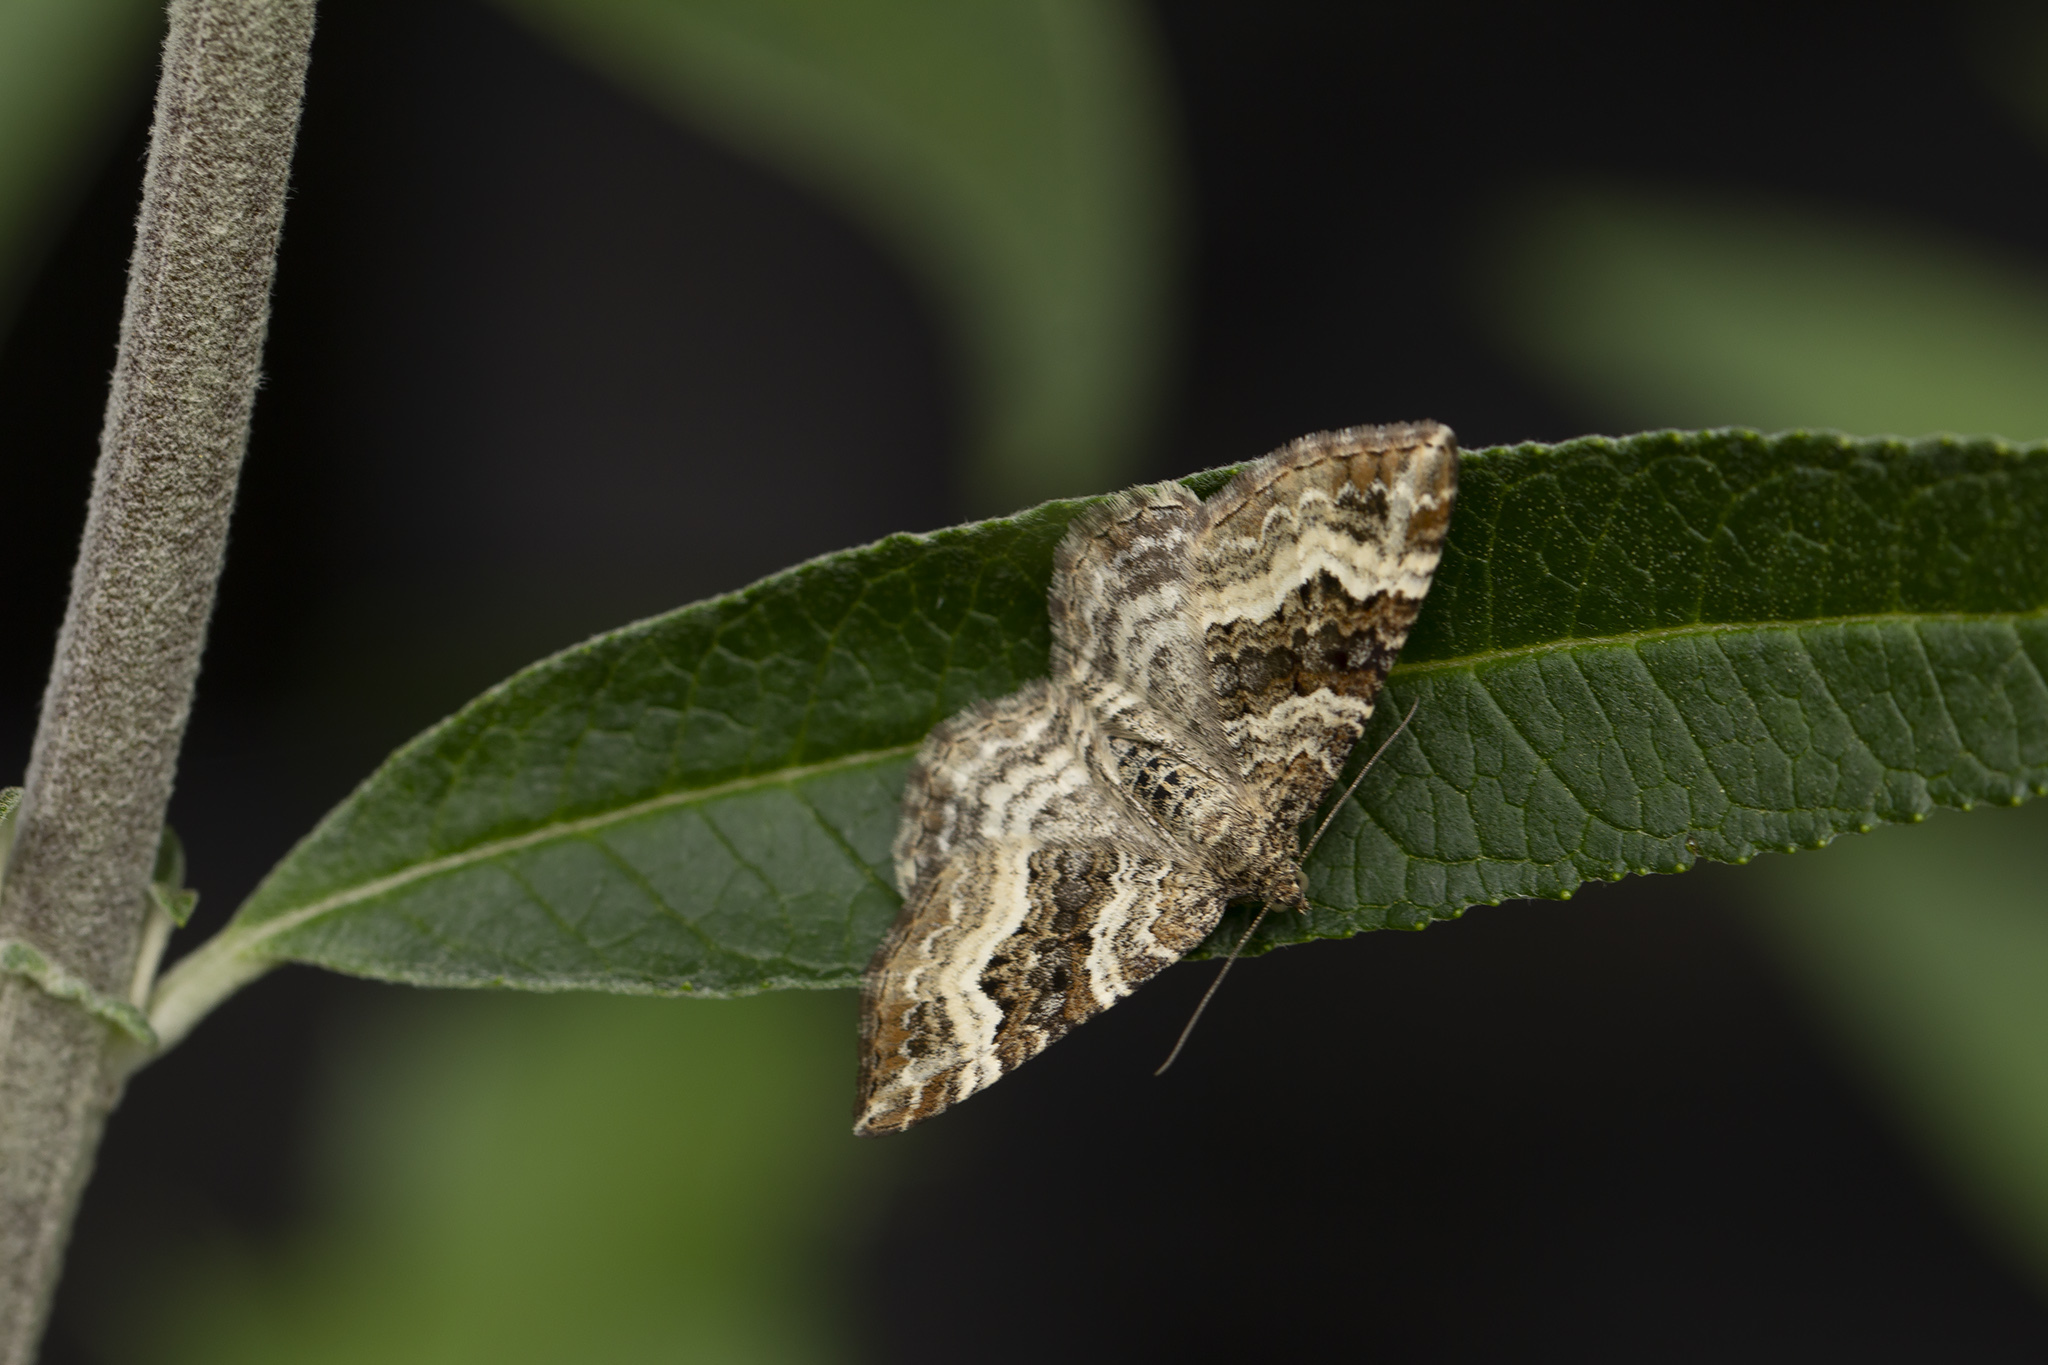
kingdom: Animalia
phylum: Arthropoda
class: Insecta
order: Lepidoptera
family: Geometridae
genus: Epirrhoe
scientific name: Epirrhoe alternata
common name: Common carpet
